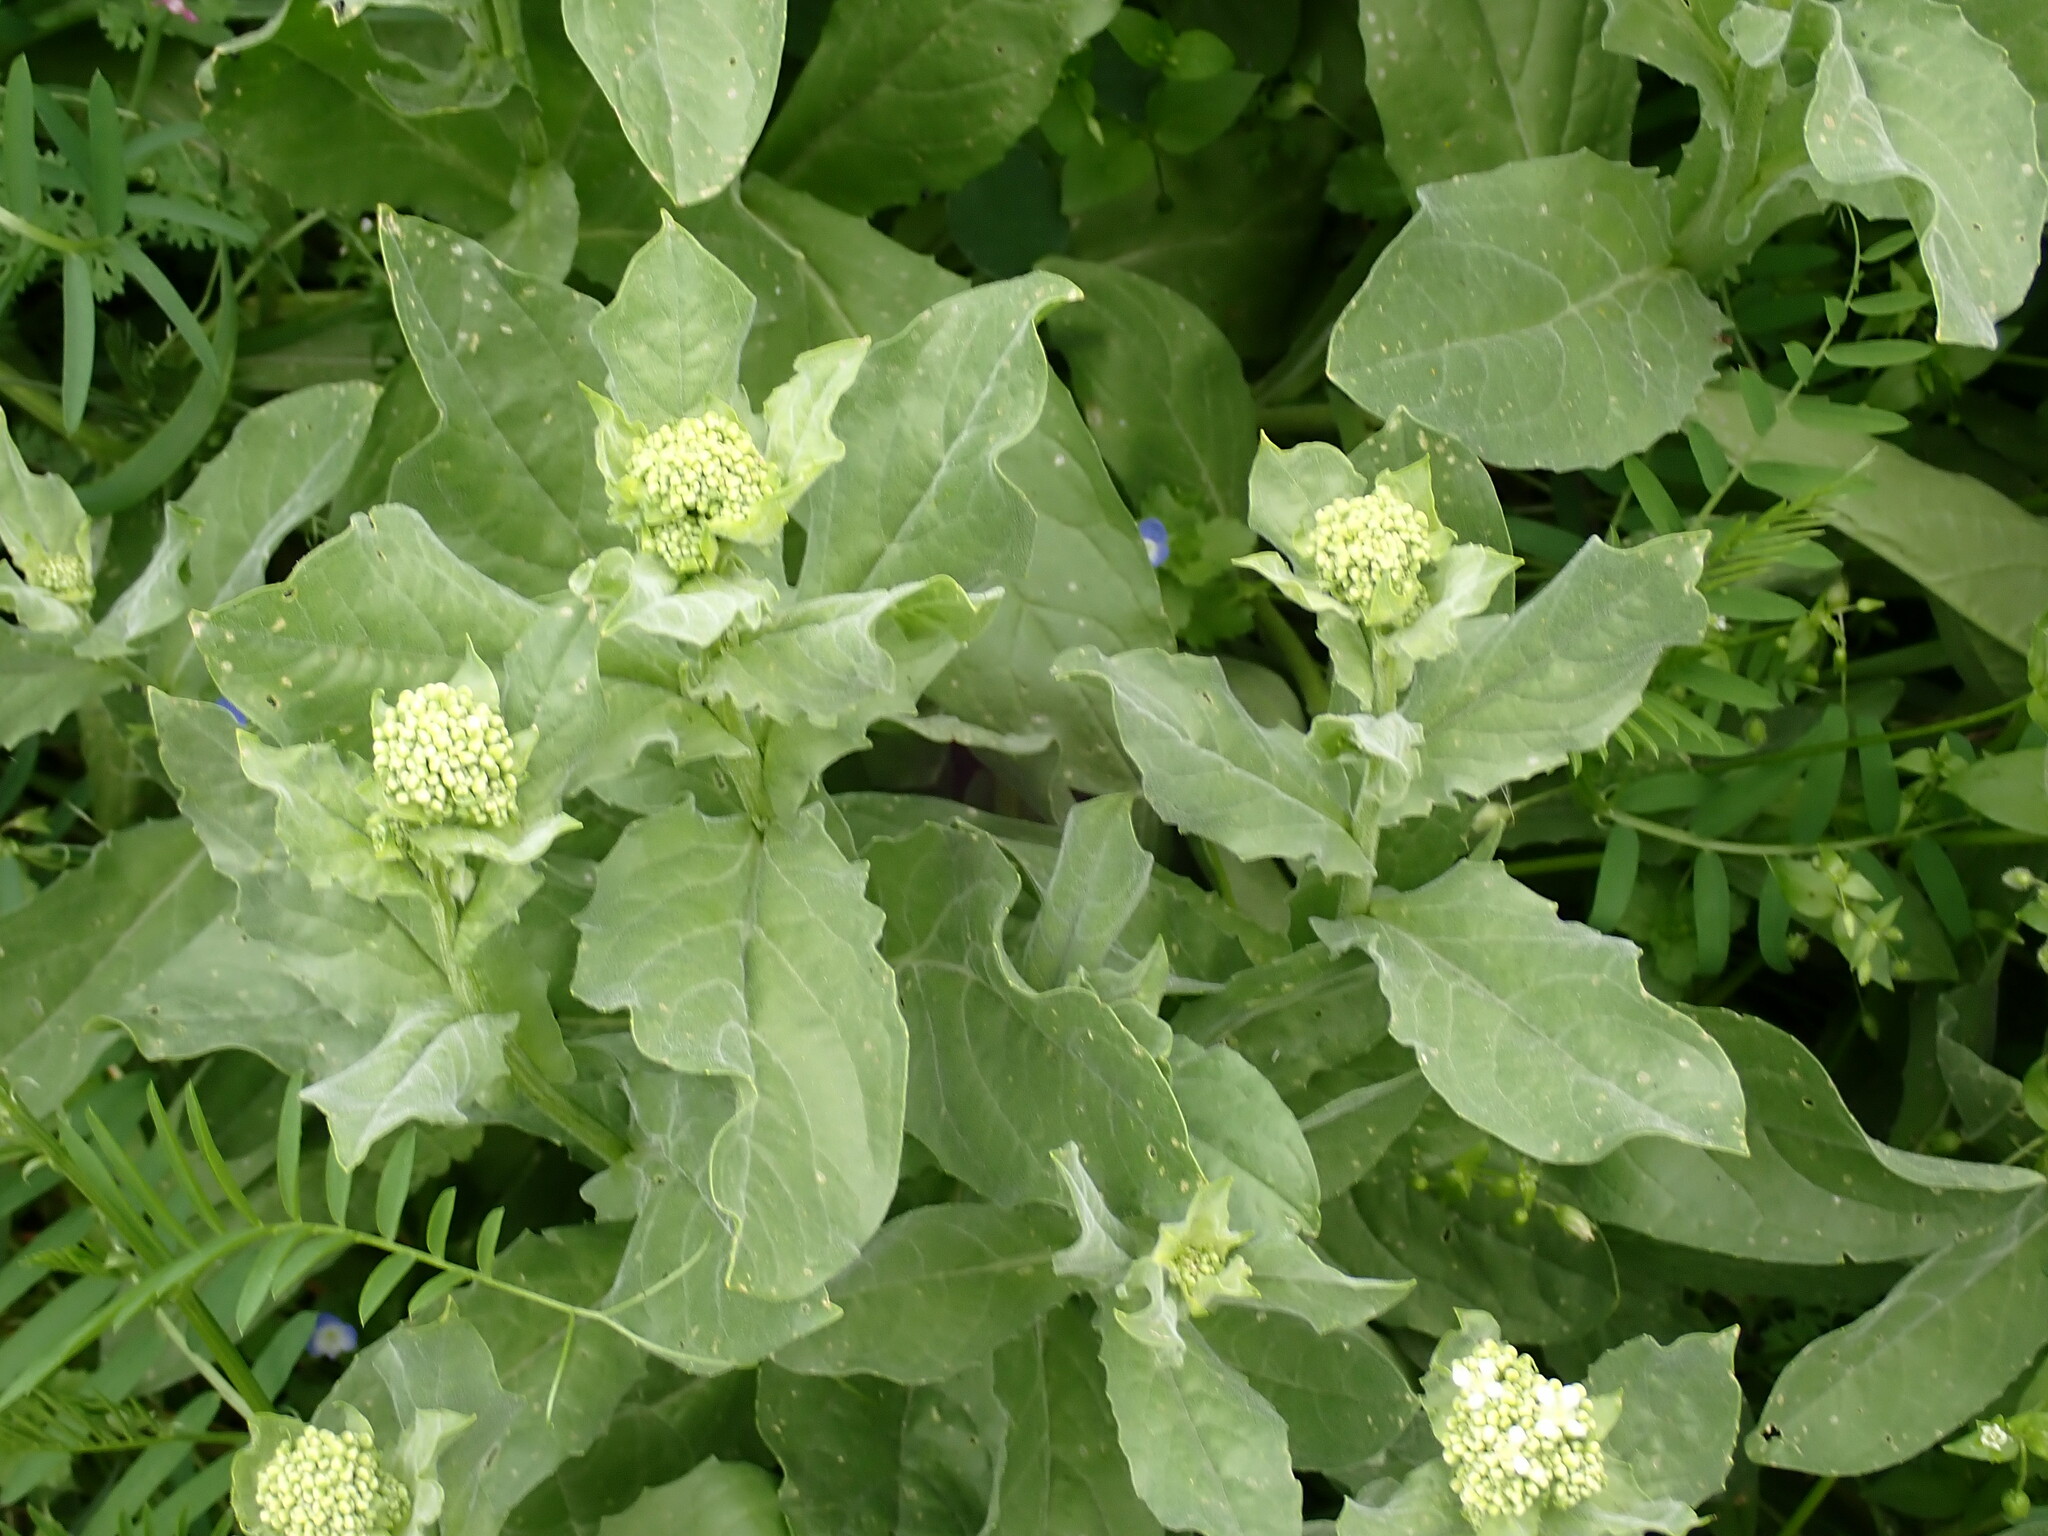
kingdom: Plantae
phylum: Tracheophyta
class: Magnoliopsida
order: Brassicales
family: Brassicaceae
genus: Lepidium
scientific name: Lepidium draba
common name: Hoary cress
